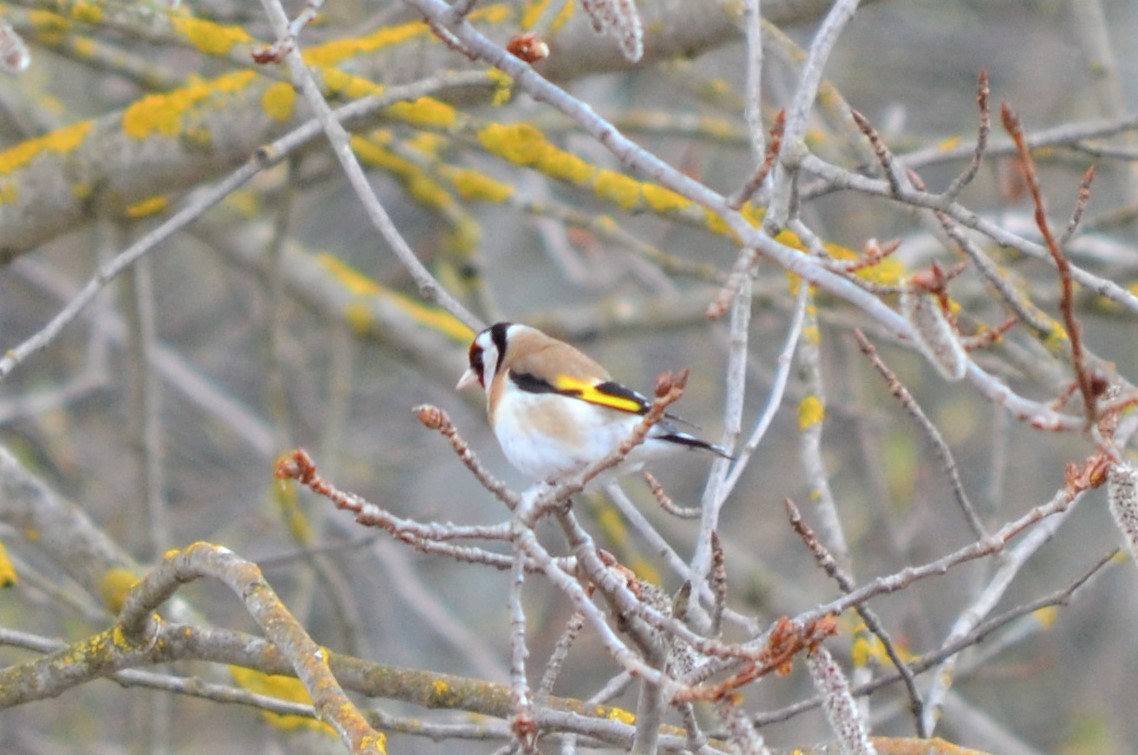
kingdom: Animalia
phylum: Chordata
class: Aves
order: Passeriformes
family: Fringillidae
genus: Carduelis
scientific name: Carduelis carduelis
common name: European goldfinch
